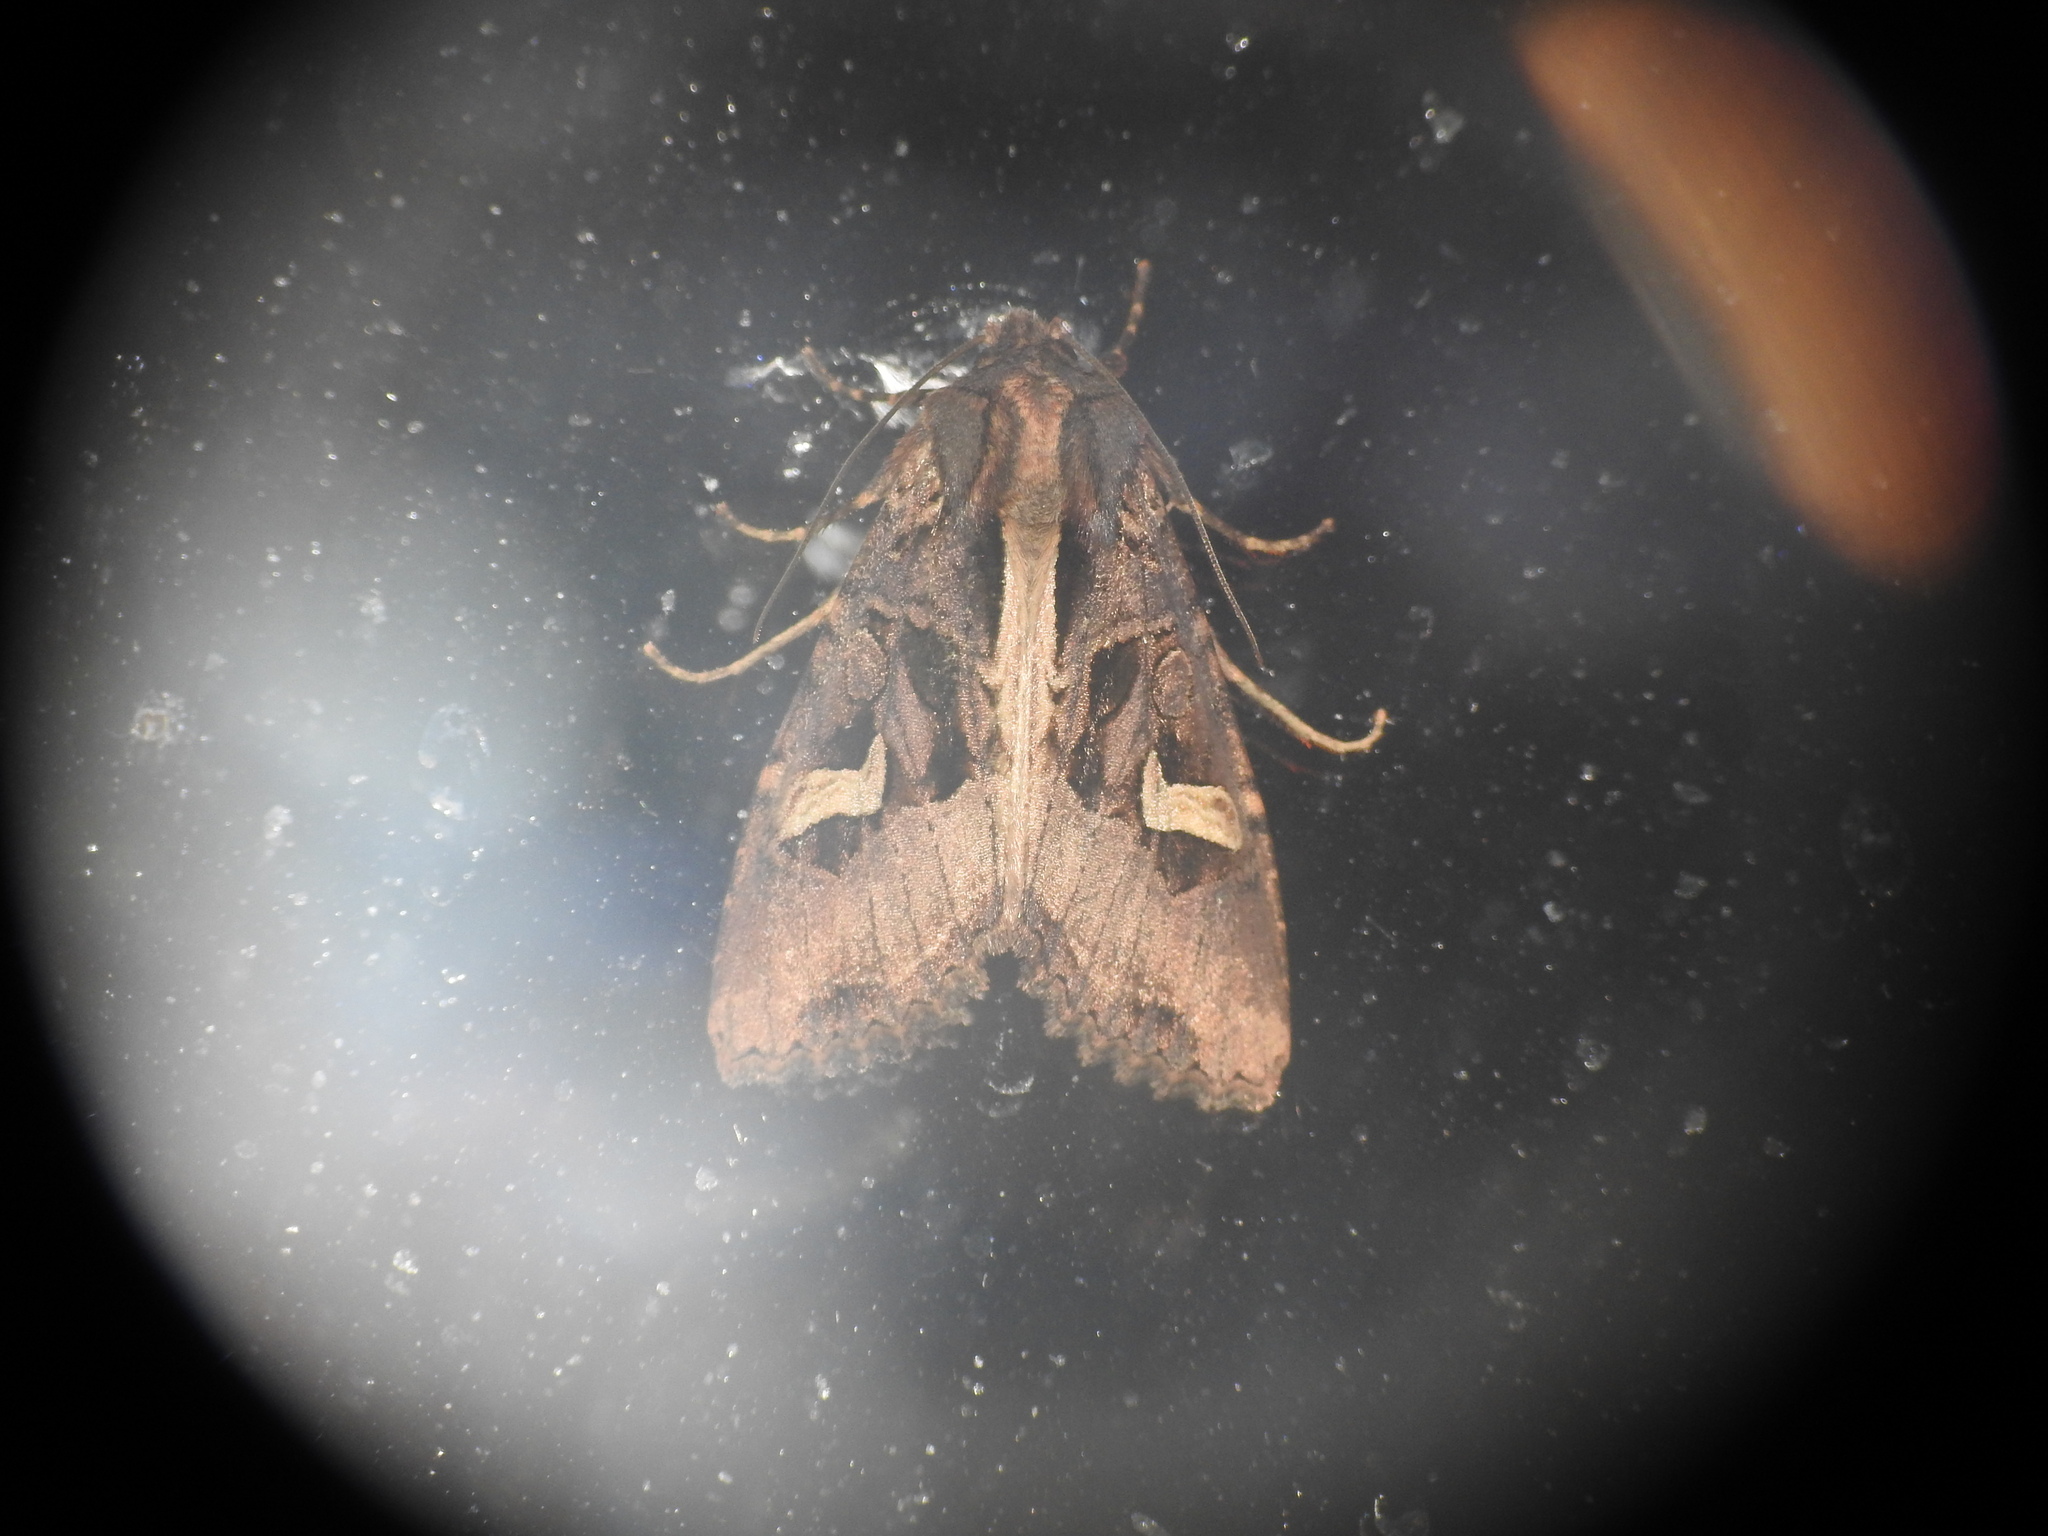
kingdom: Animalia
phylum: Arthropoda
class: Insecta
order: Lepidoptera
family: Noctuidae
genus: Trigonophora
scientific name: Trigonophora flammea
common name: Flame brocade
